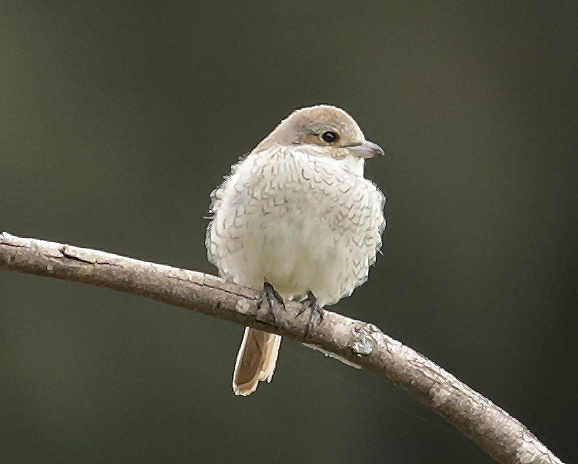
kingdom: Animalia
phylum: Chordata
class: Aves
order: Passeriformes
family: Laniidae
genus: Lanius
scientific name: Lanius collurio
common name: Red-backed shrike
